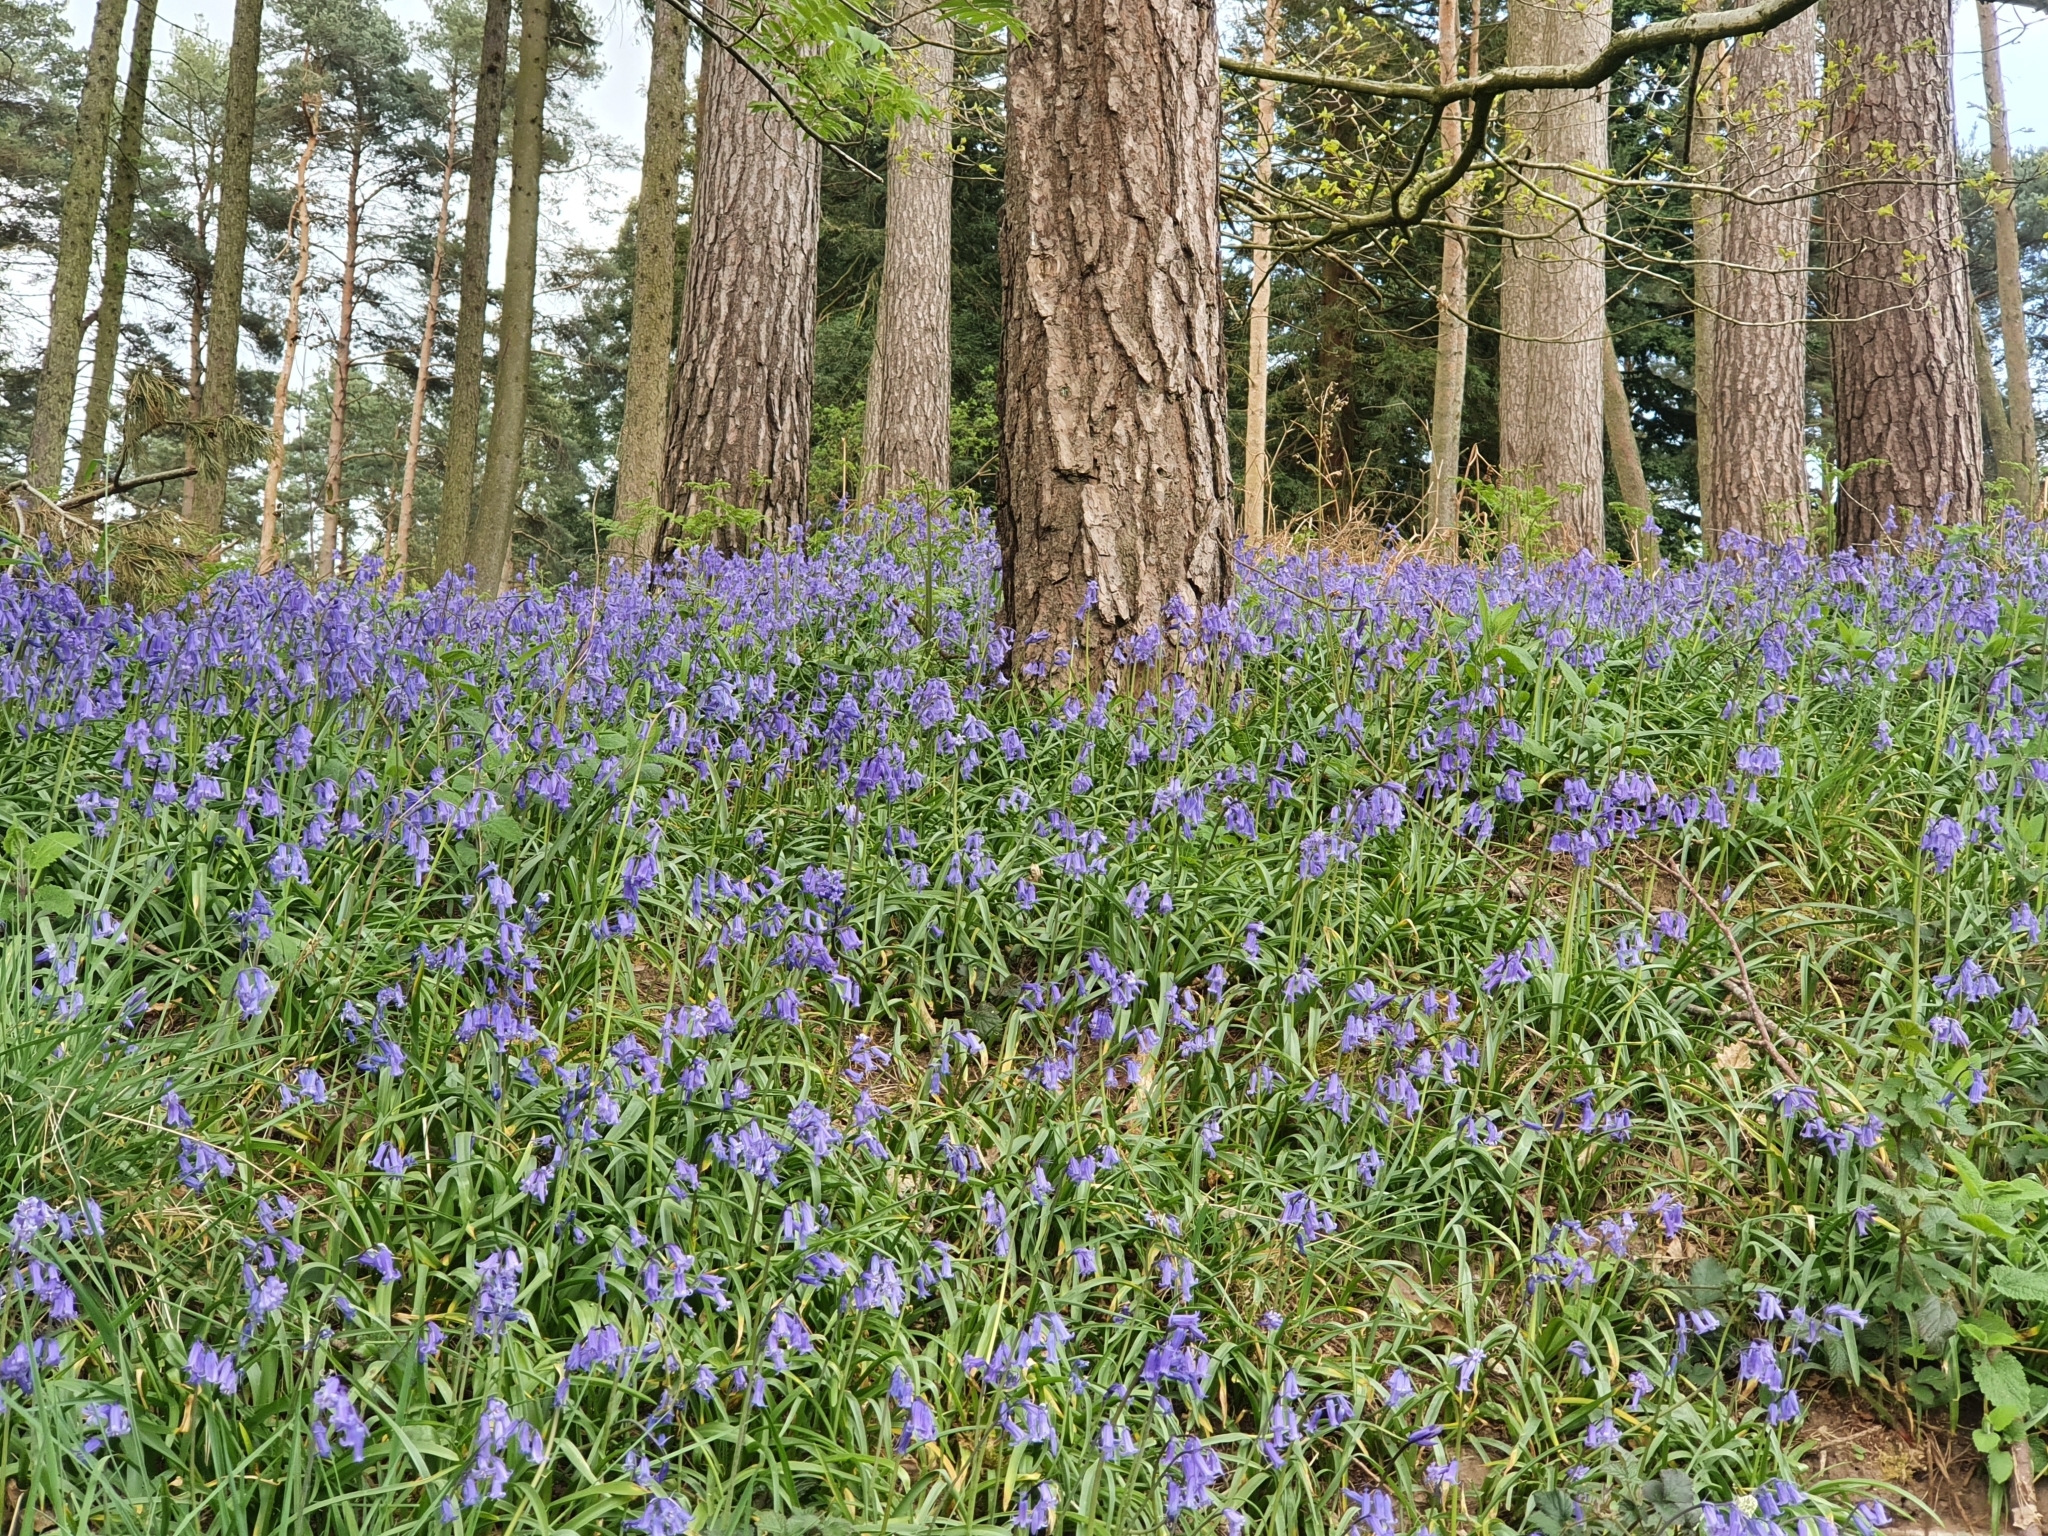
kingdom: Plantae
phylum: Tracheophyta
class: Liliopsida
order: Asparagales
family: Asparagaceae
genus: Hyacinthoides
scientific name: Hyacinthoides non-scripta
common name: Bluebell
